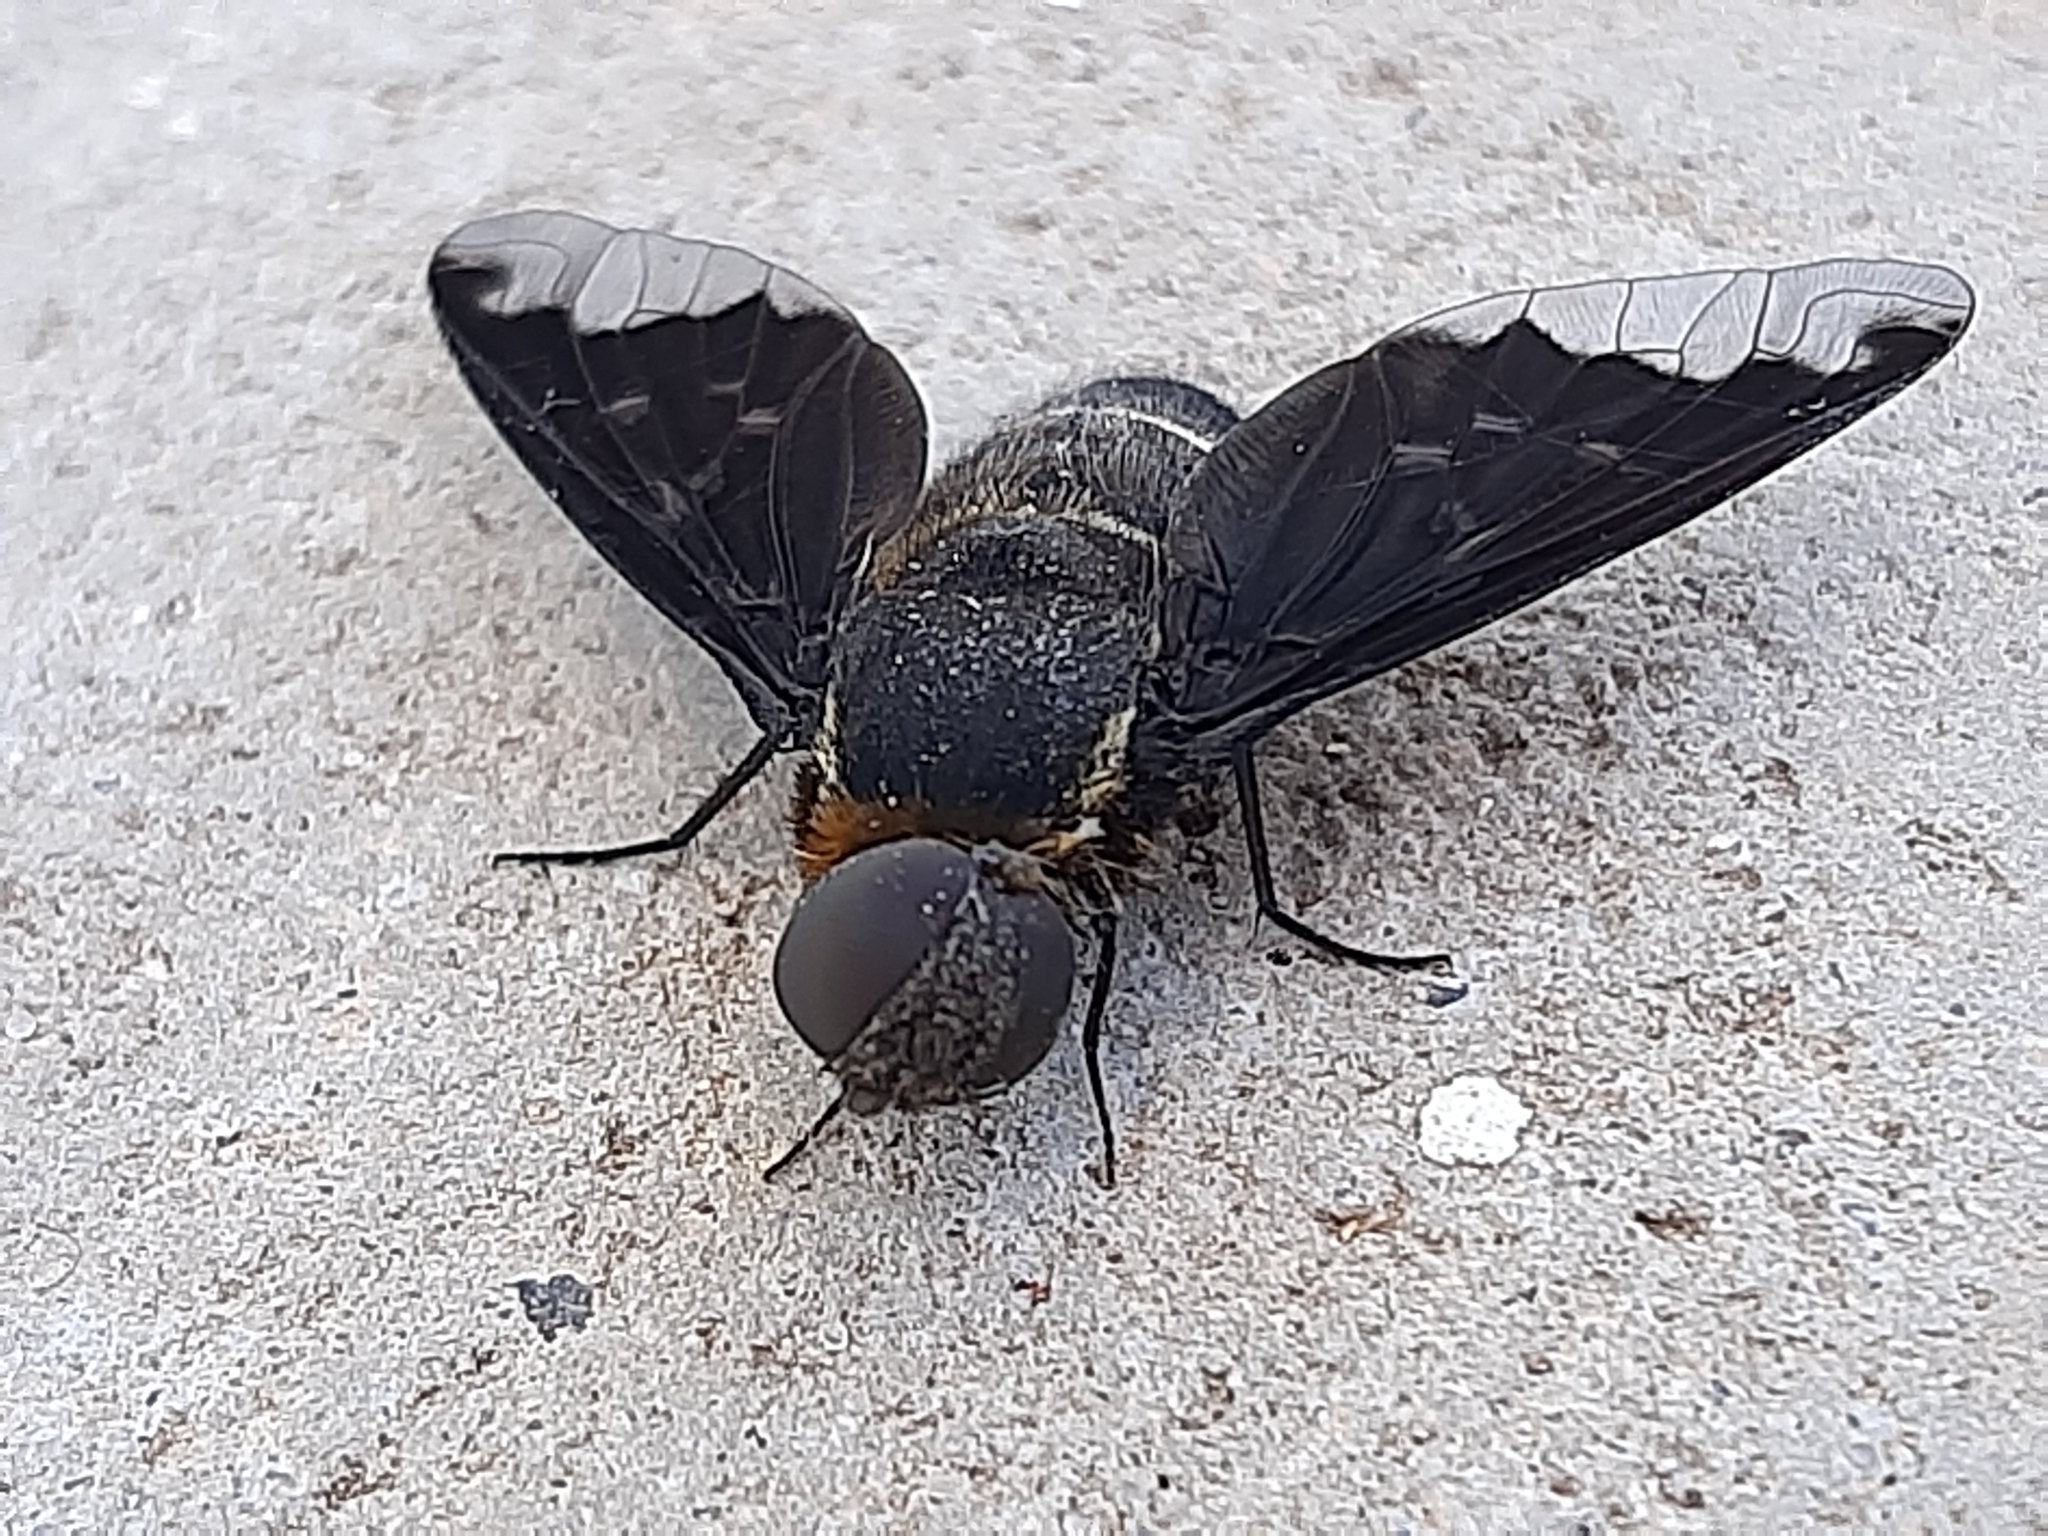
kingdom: Animalia
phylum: Arthropoda
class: Insecta
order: Diptera
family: Bombyliidae
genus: Hemipenthes
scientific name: Hemipenthes velutina
